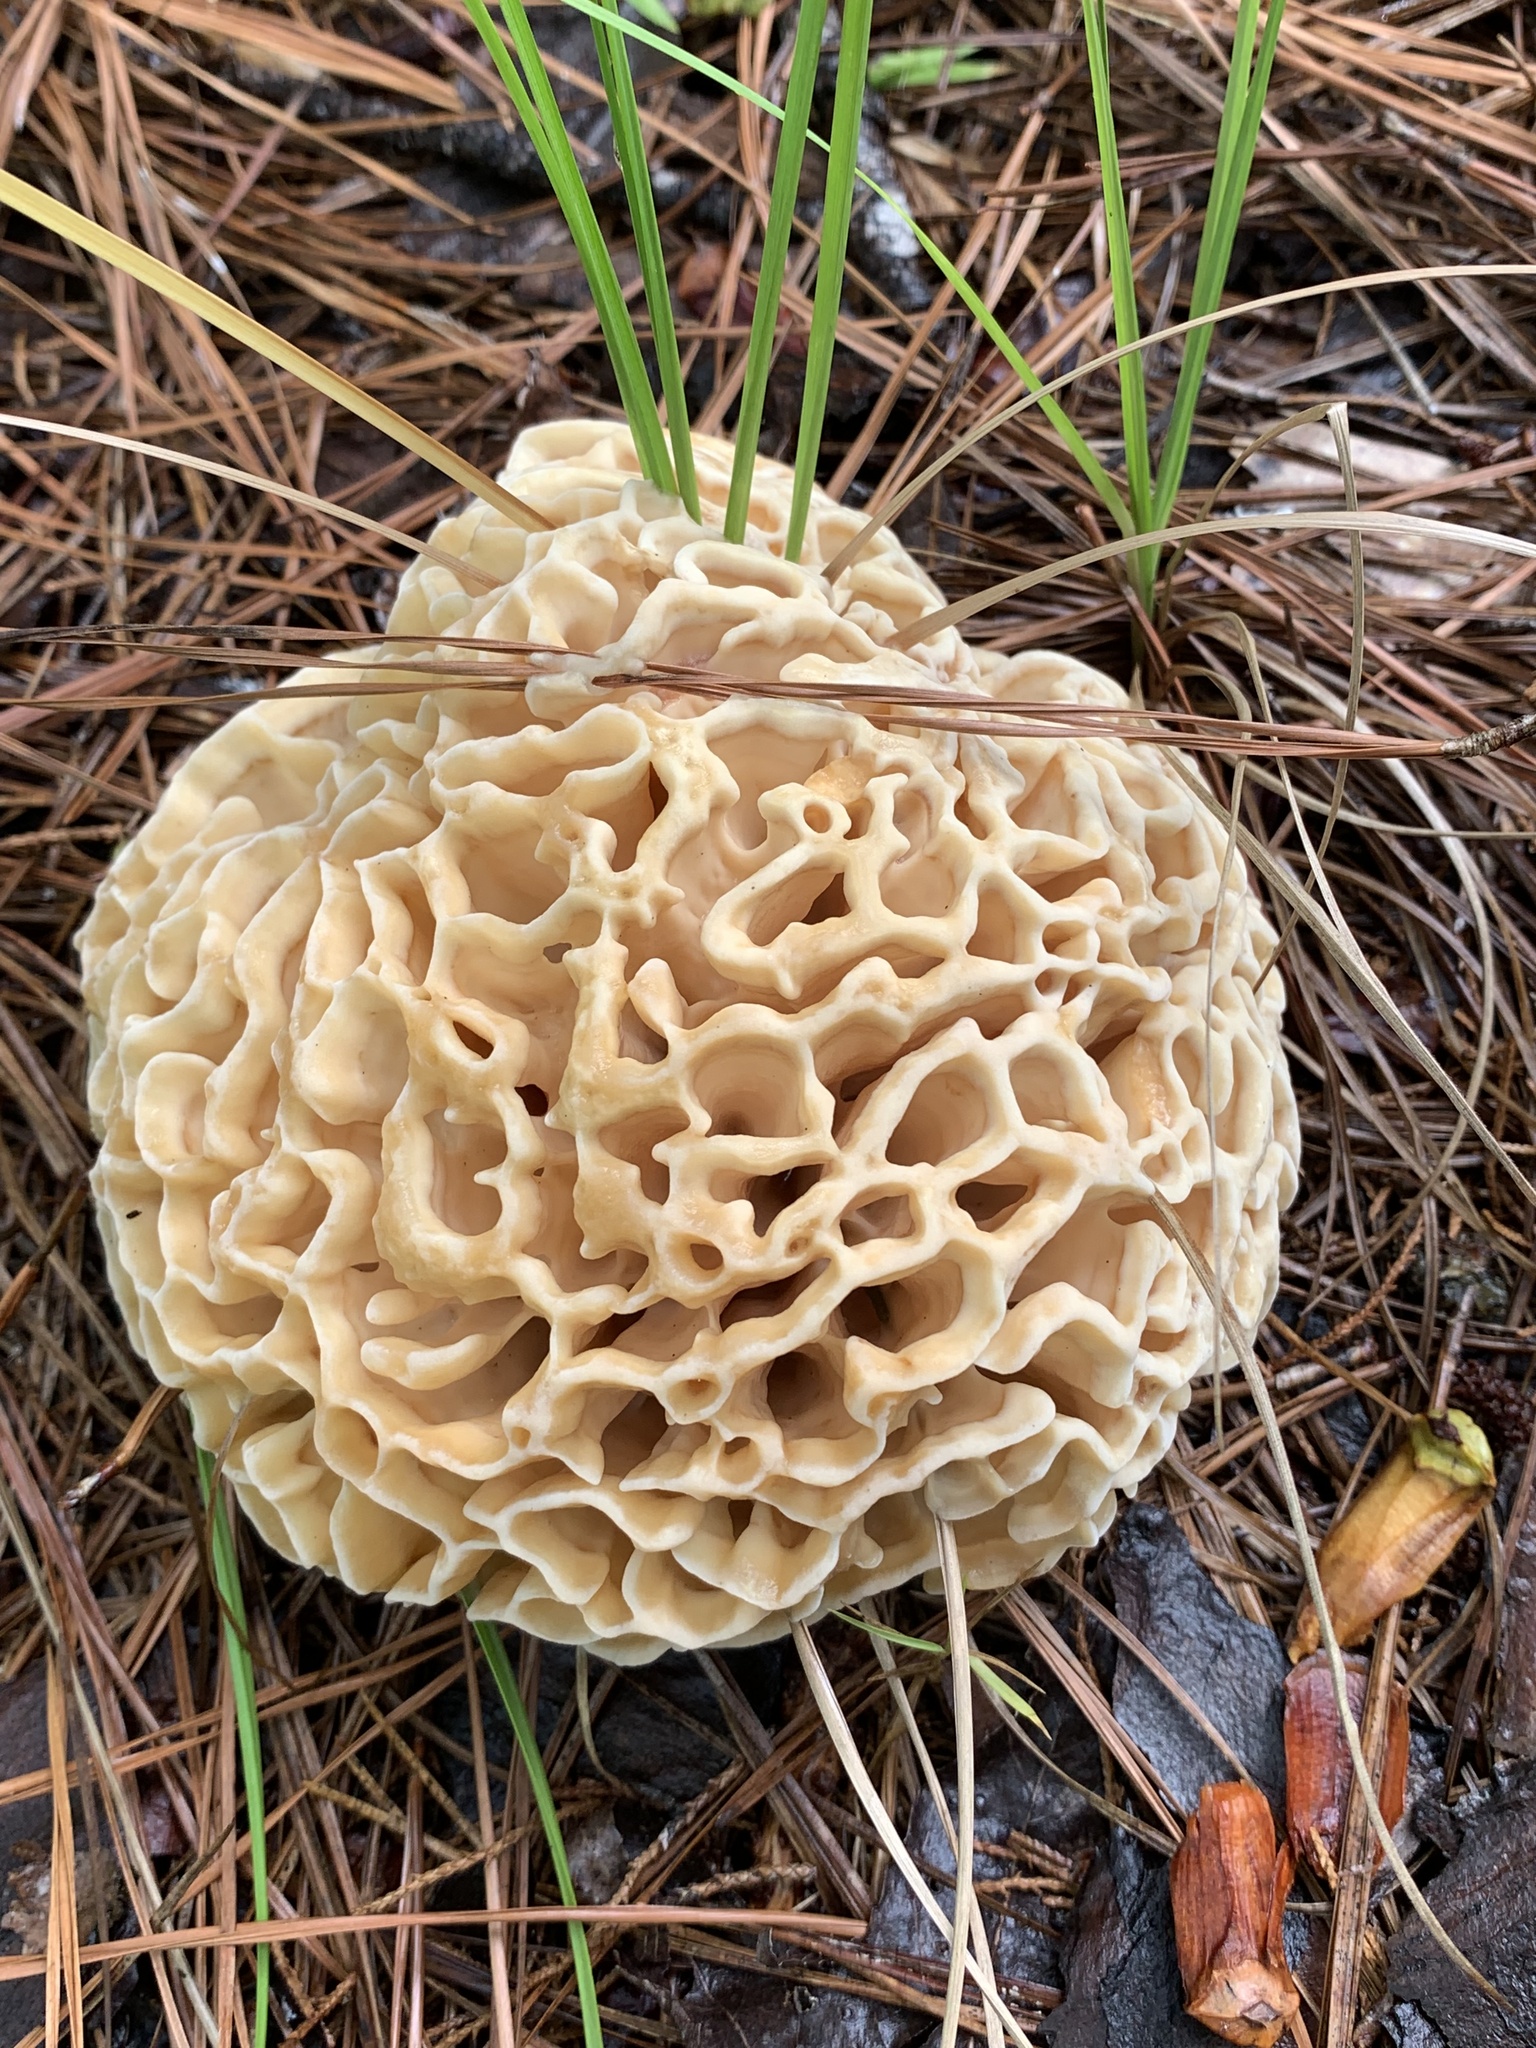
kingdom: Fungi
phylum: Basidiomycota
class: Agaricomycetes
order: Polyporales
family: Sparassidaceae
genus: Sparassis
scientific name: Sparassis spathulata
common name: Eastern cauliflower mushroom
